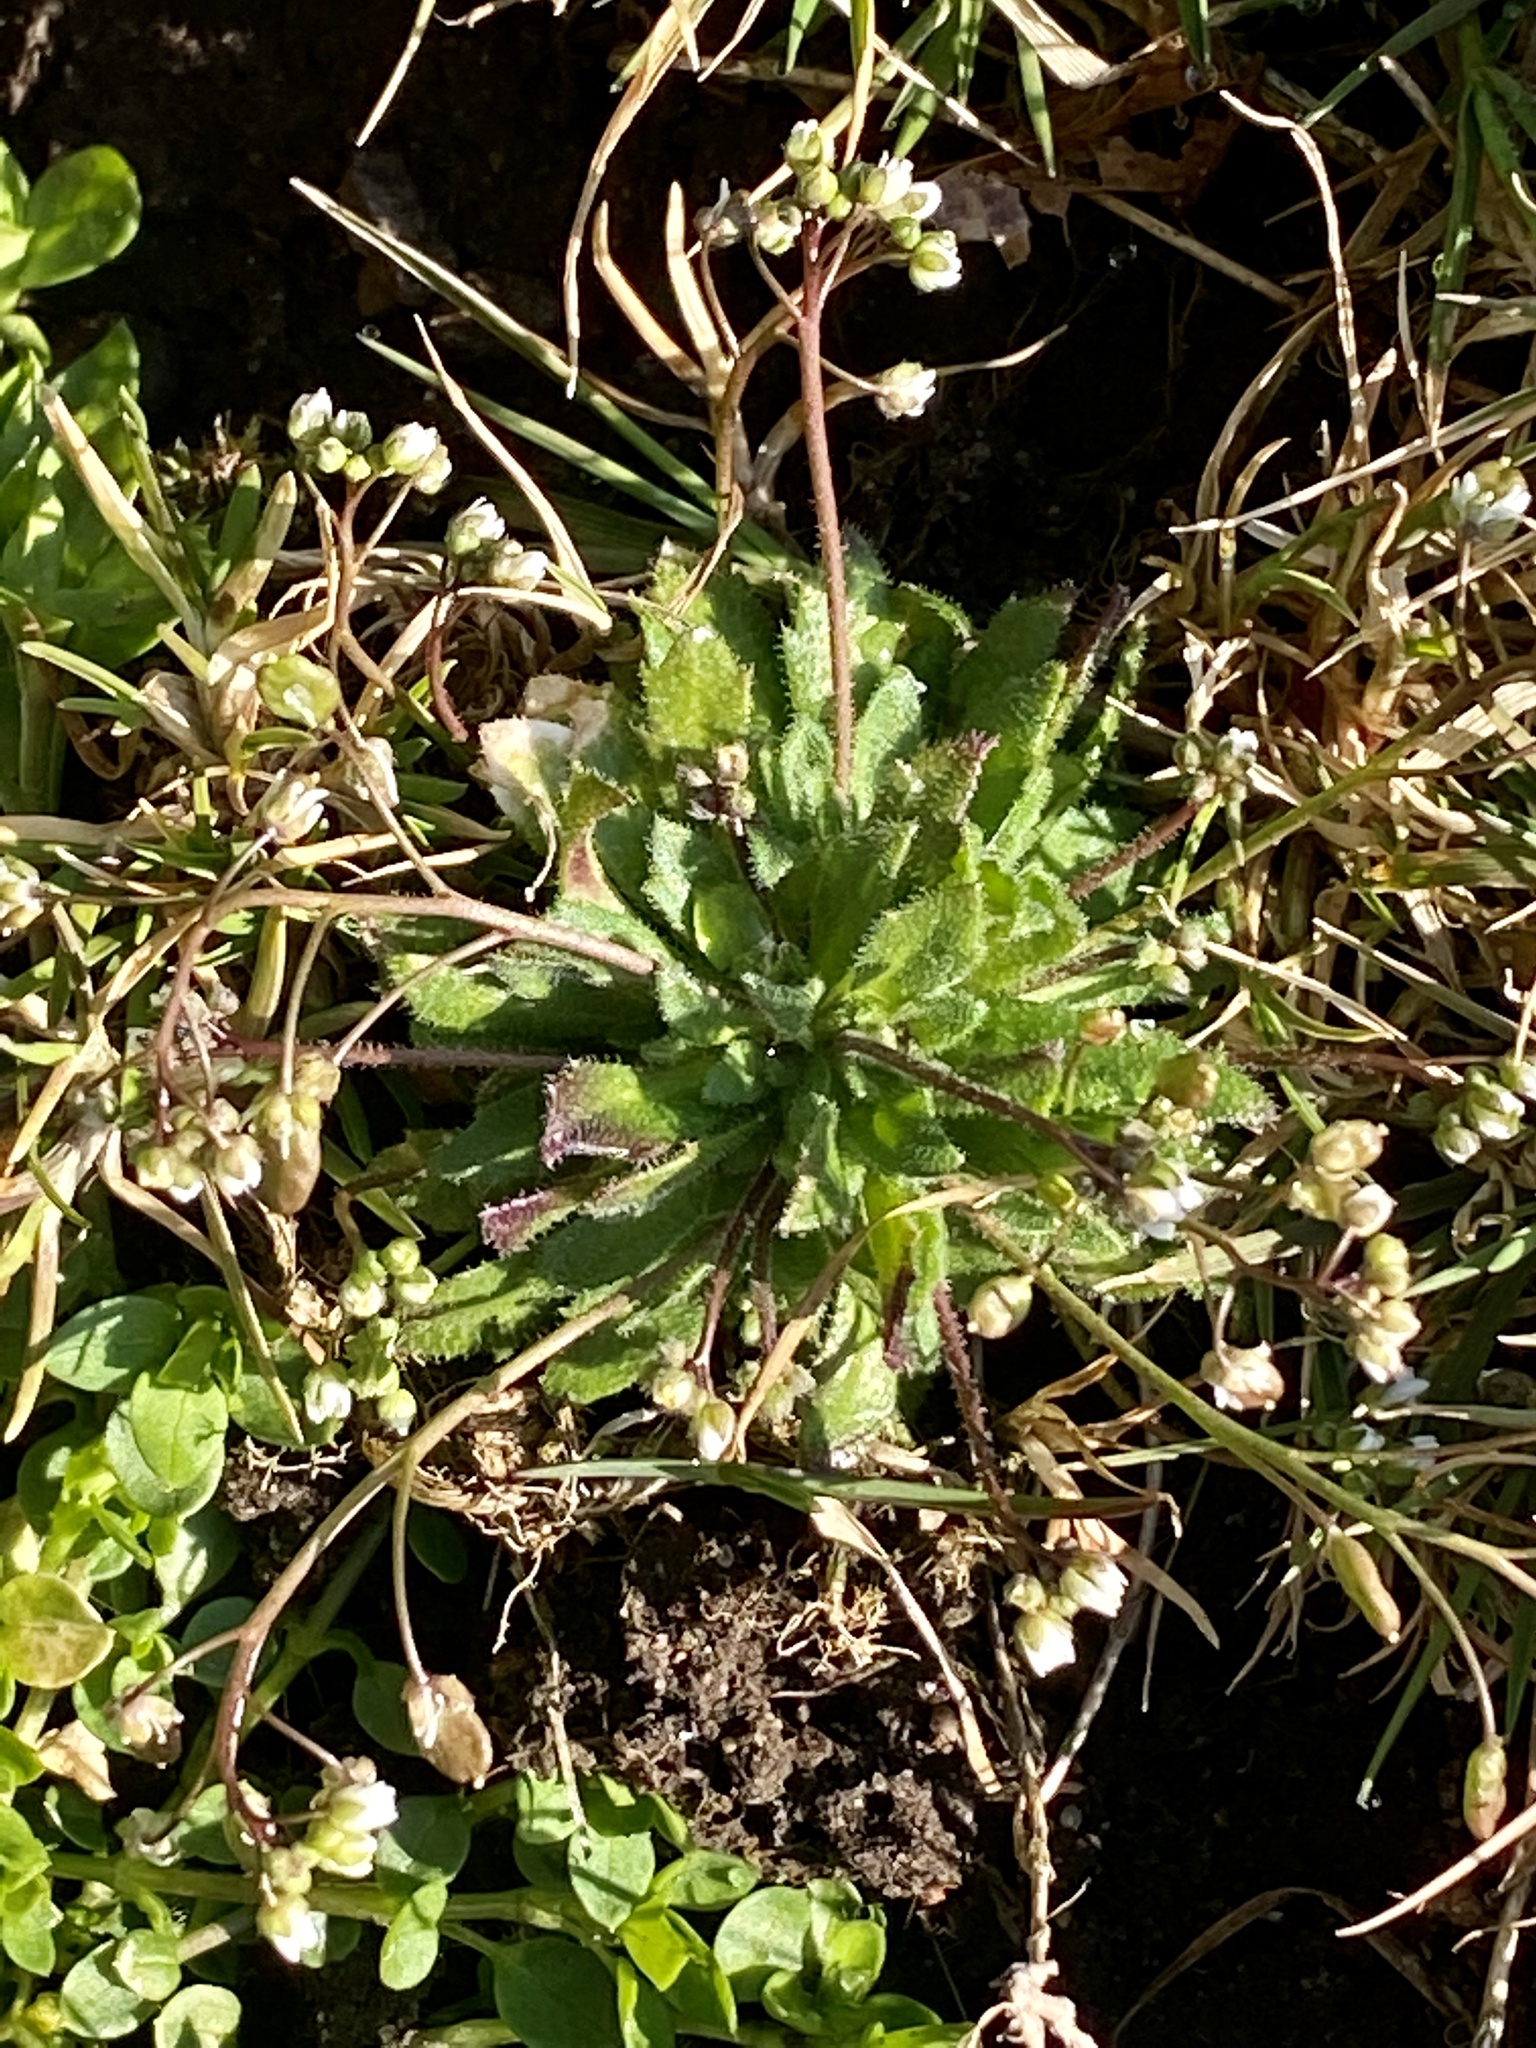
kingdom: Plantae
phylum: Tracheophyta
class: Magnoliopsida
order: Brassicales
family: Brassicaceae
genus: Draba
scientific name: Draba verna
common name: Spring draba
